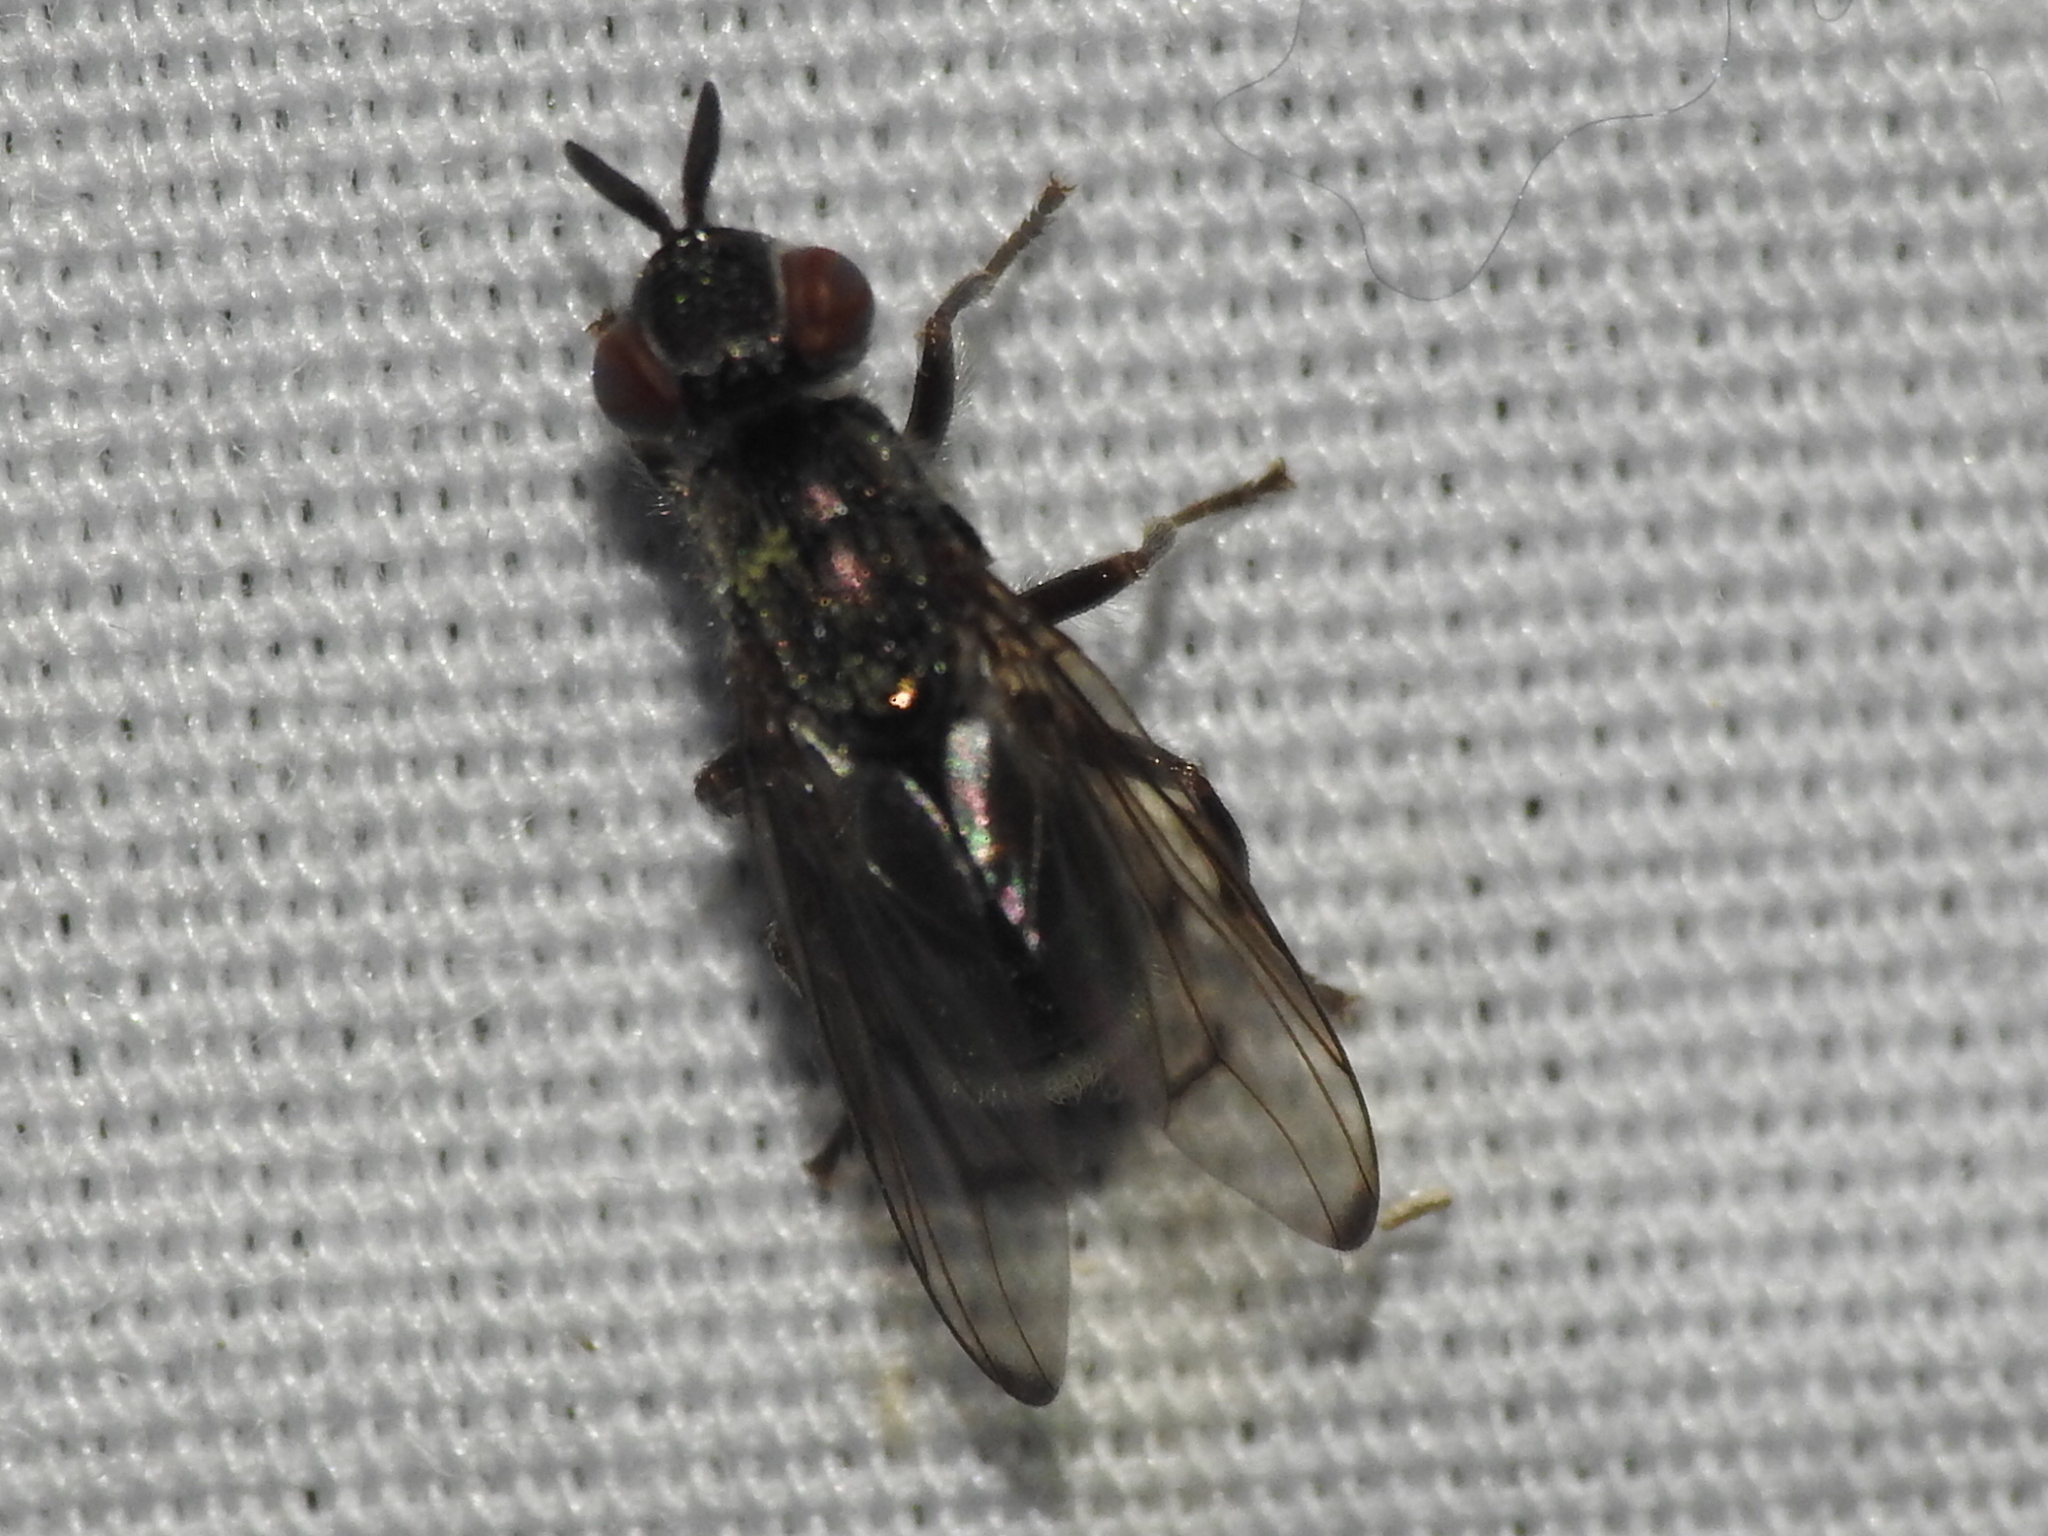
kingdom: Animalia
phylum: Arthropoda
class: Insecta
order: Diptera
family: Platystomatidae
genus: Senopterina
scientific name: Senopterina foxleei
